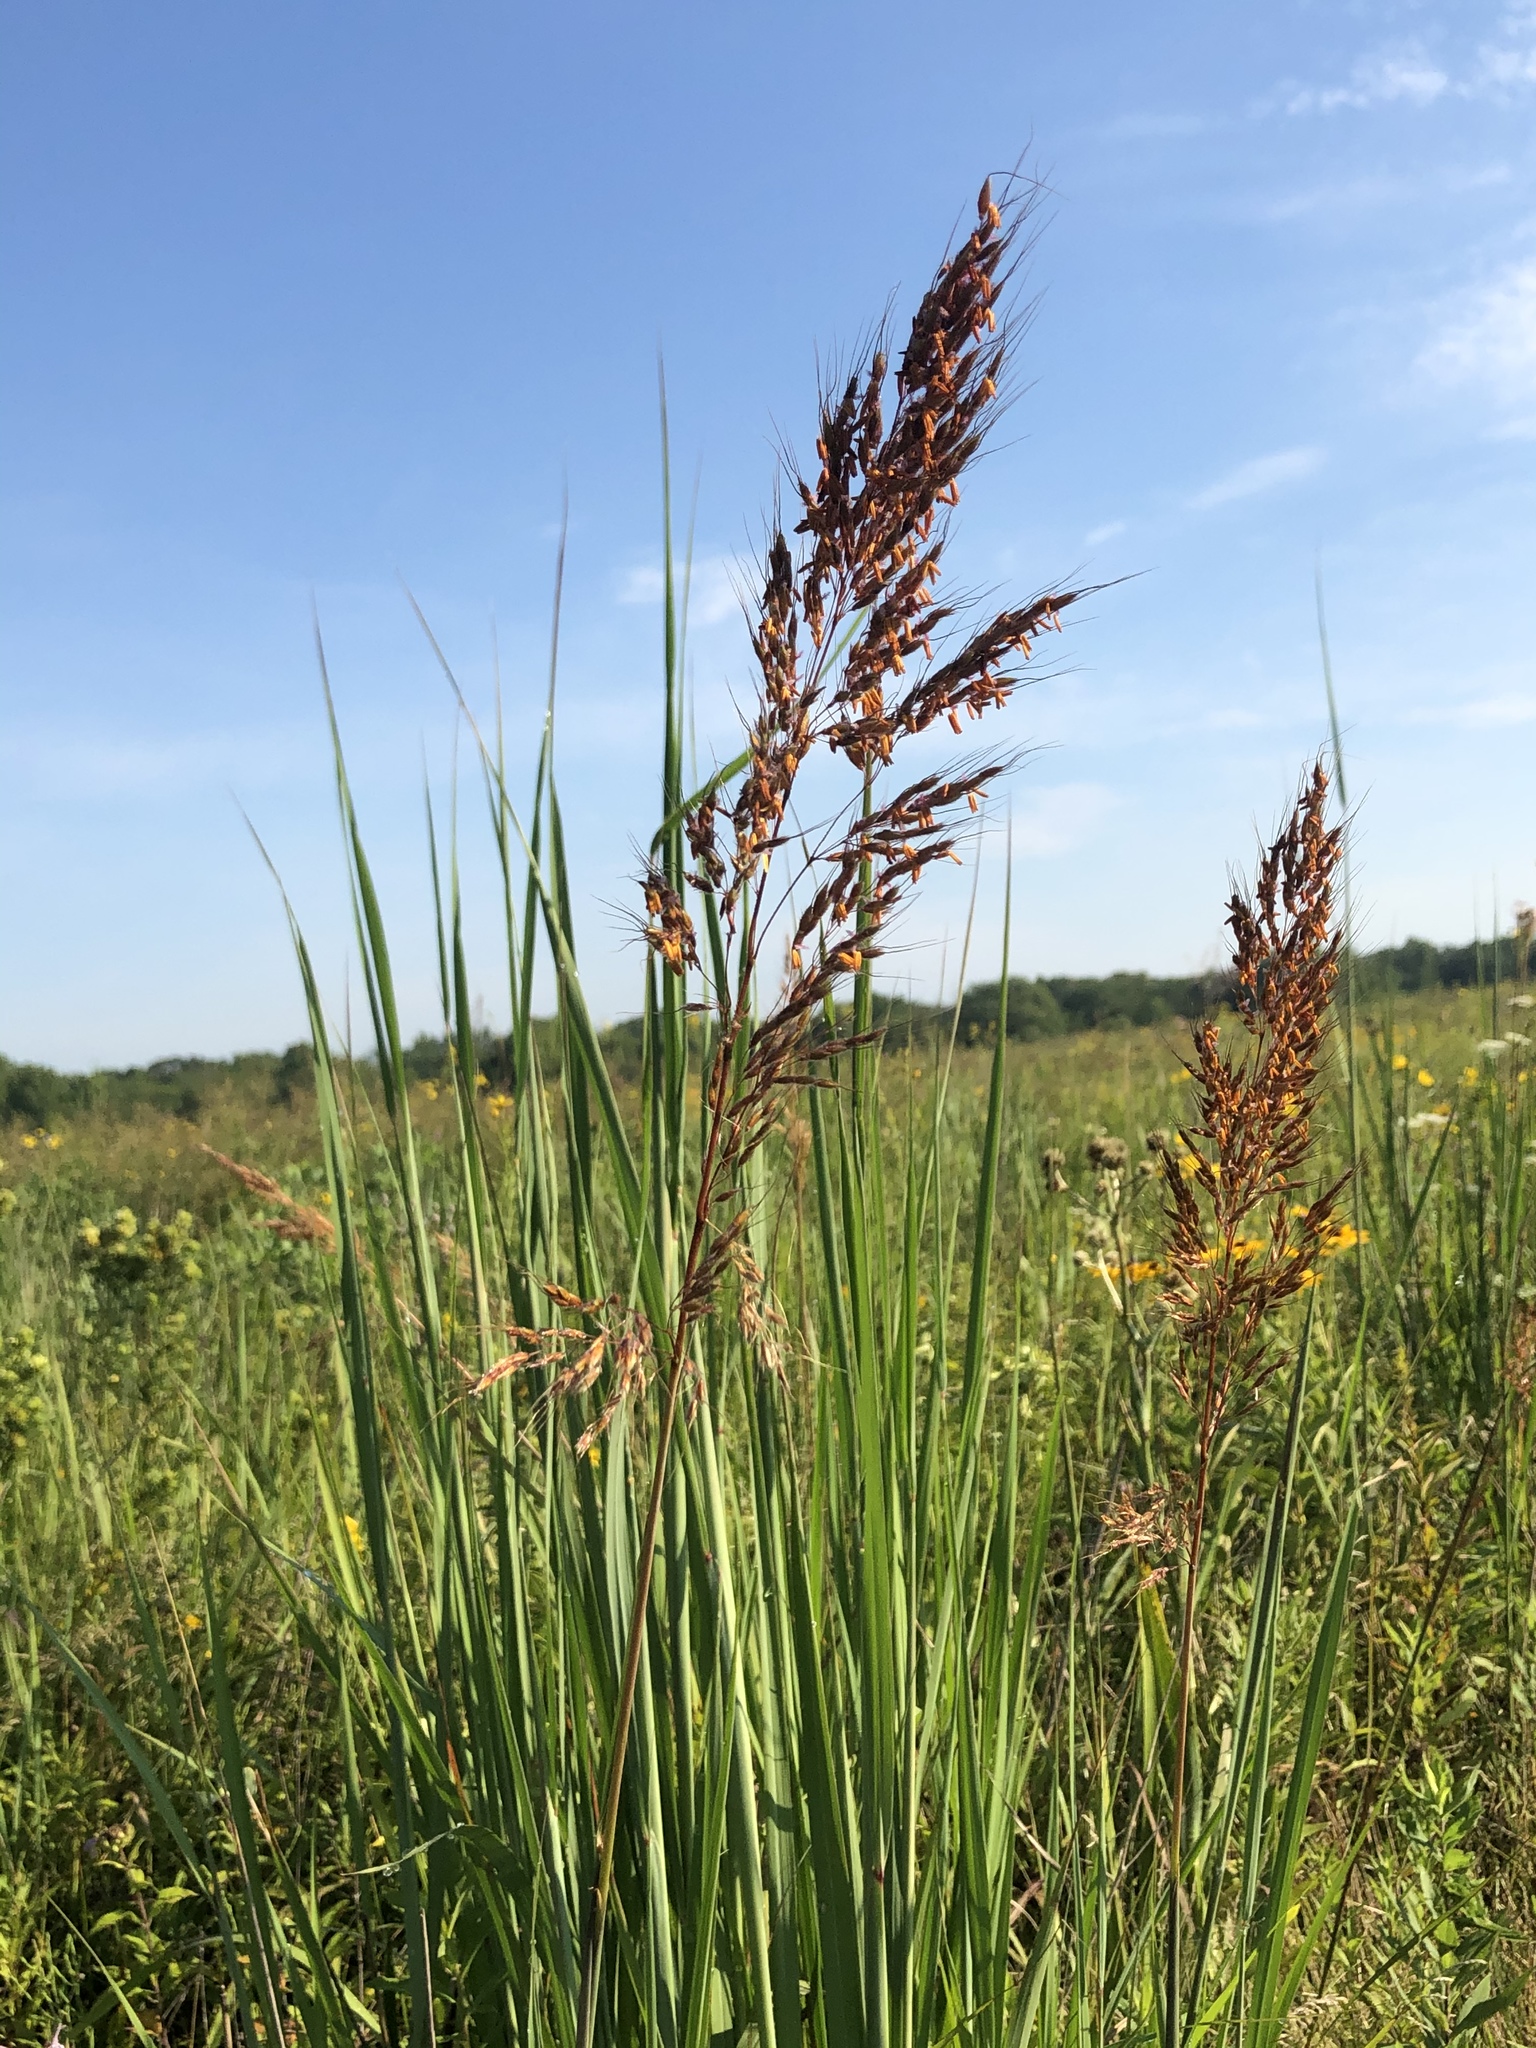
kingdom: Plantae
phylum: Tracheophyta
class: Liliopsida
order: Poales
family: Poaceae
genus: Sorghastrum
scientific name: Sorghastrum nutans
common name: Indian grass
